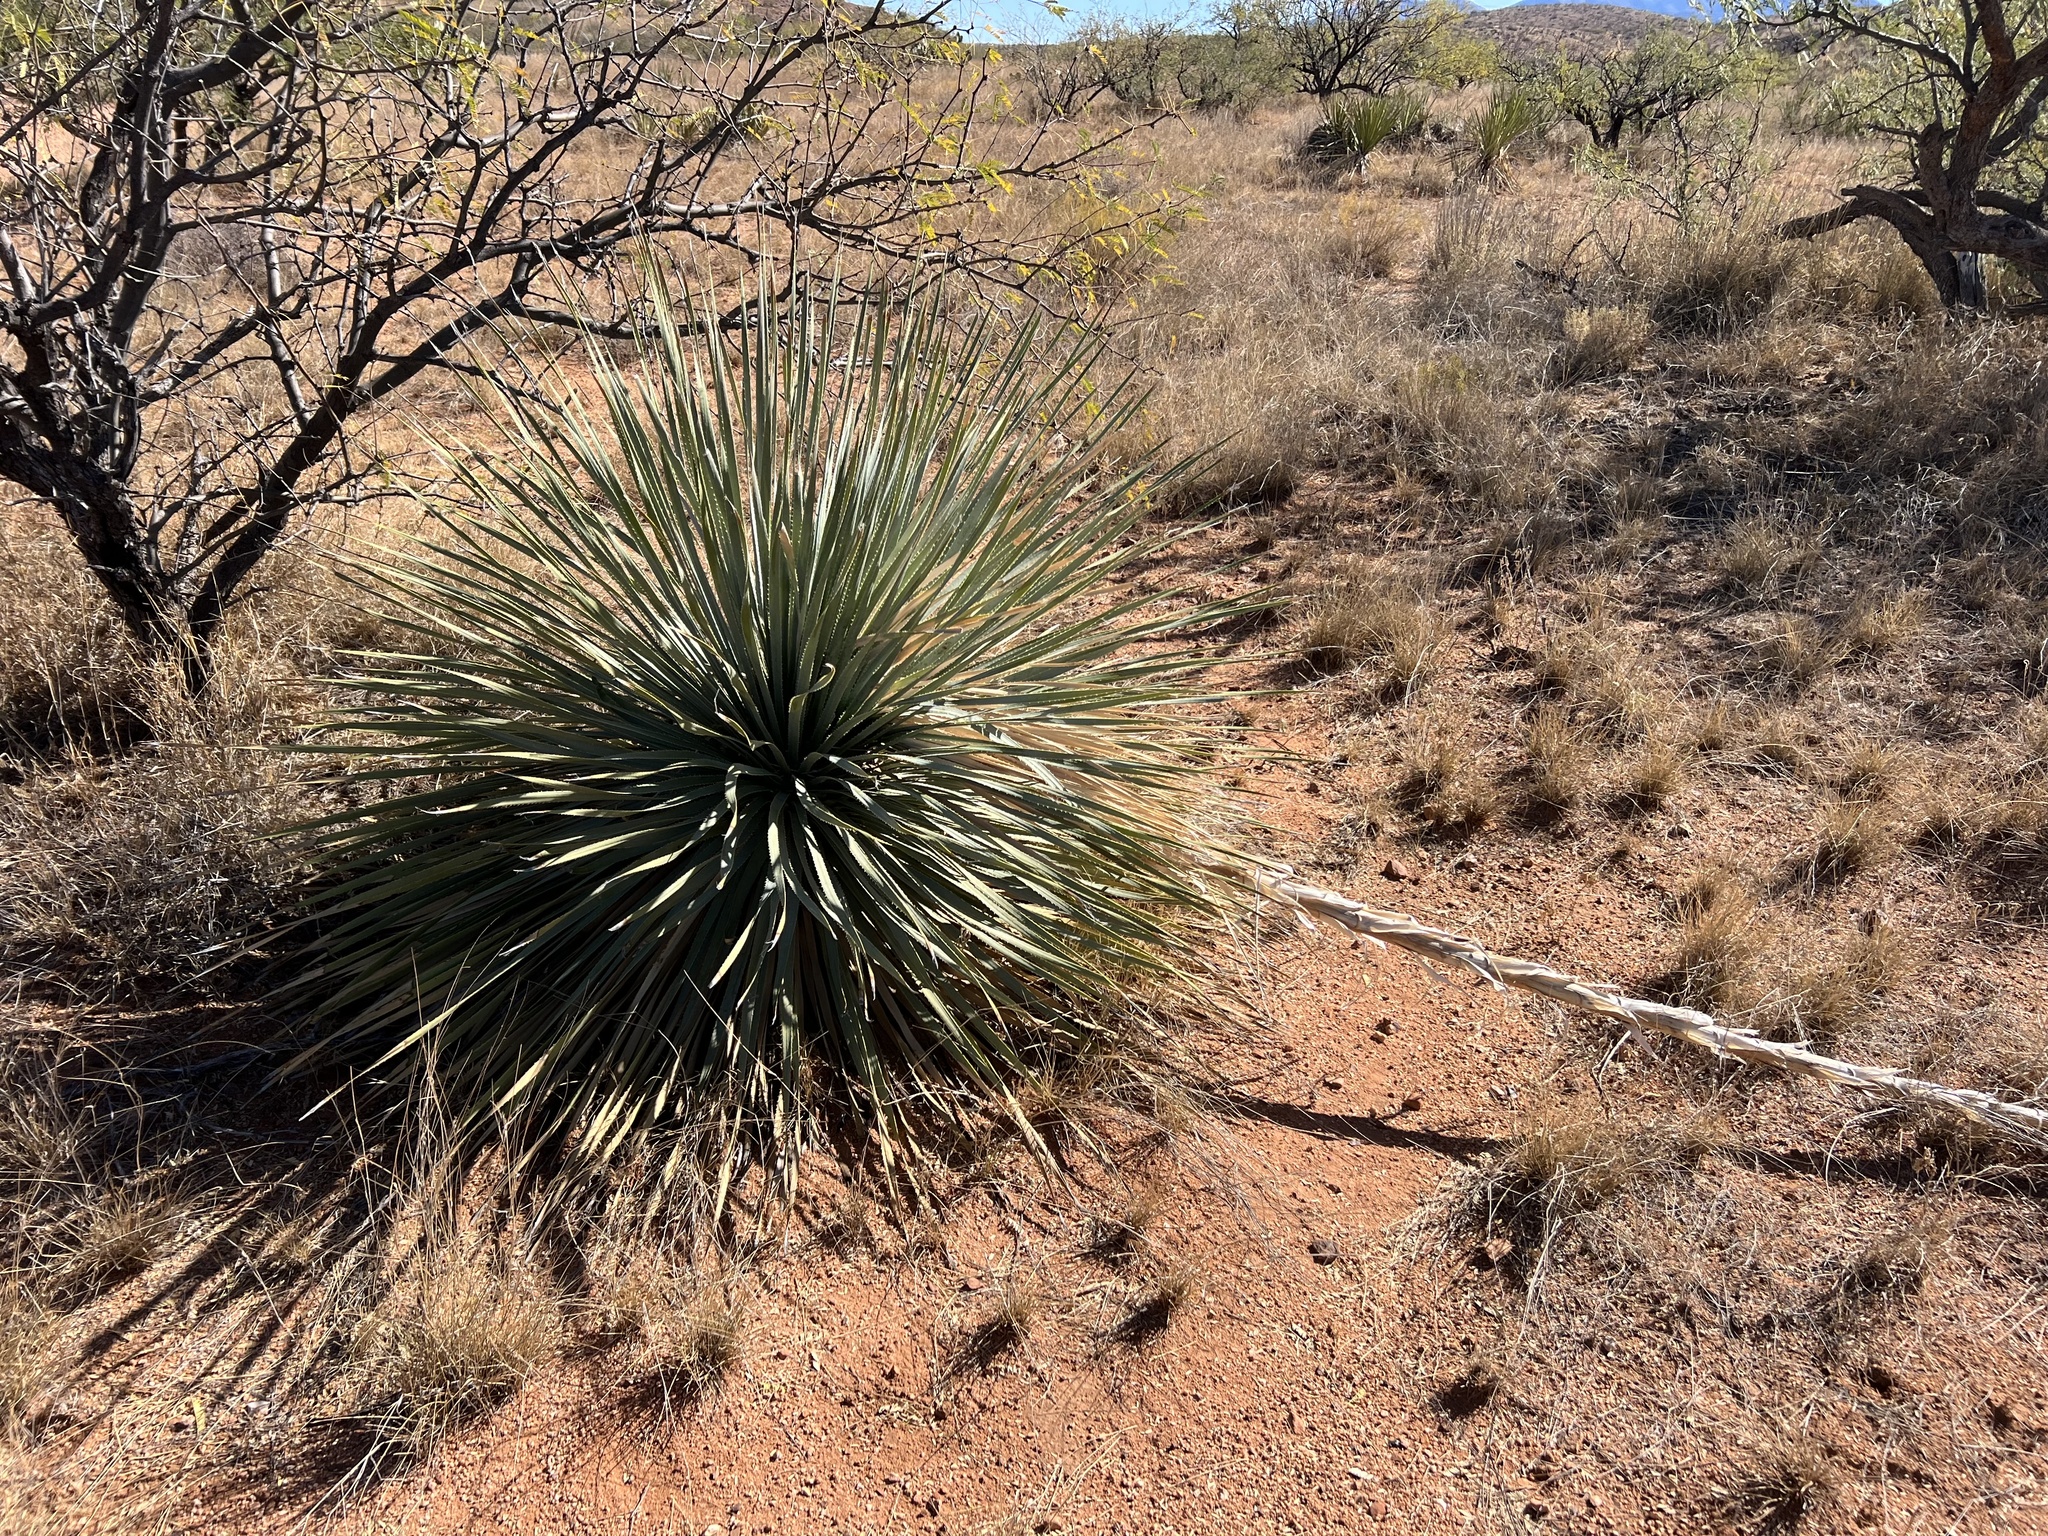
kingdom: Plantae
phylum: Tracheophyta
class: Liliopsida
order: Asparagales
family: Asparagaceae
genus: Dasylirion
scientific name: Dasylirion wheeleri
